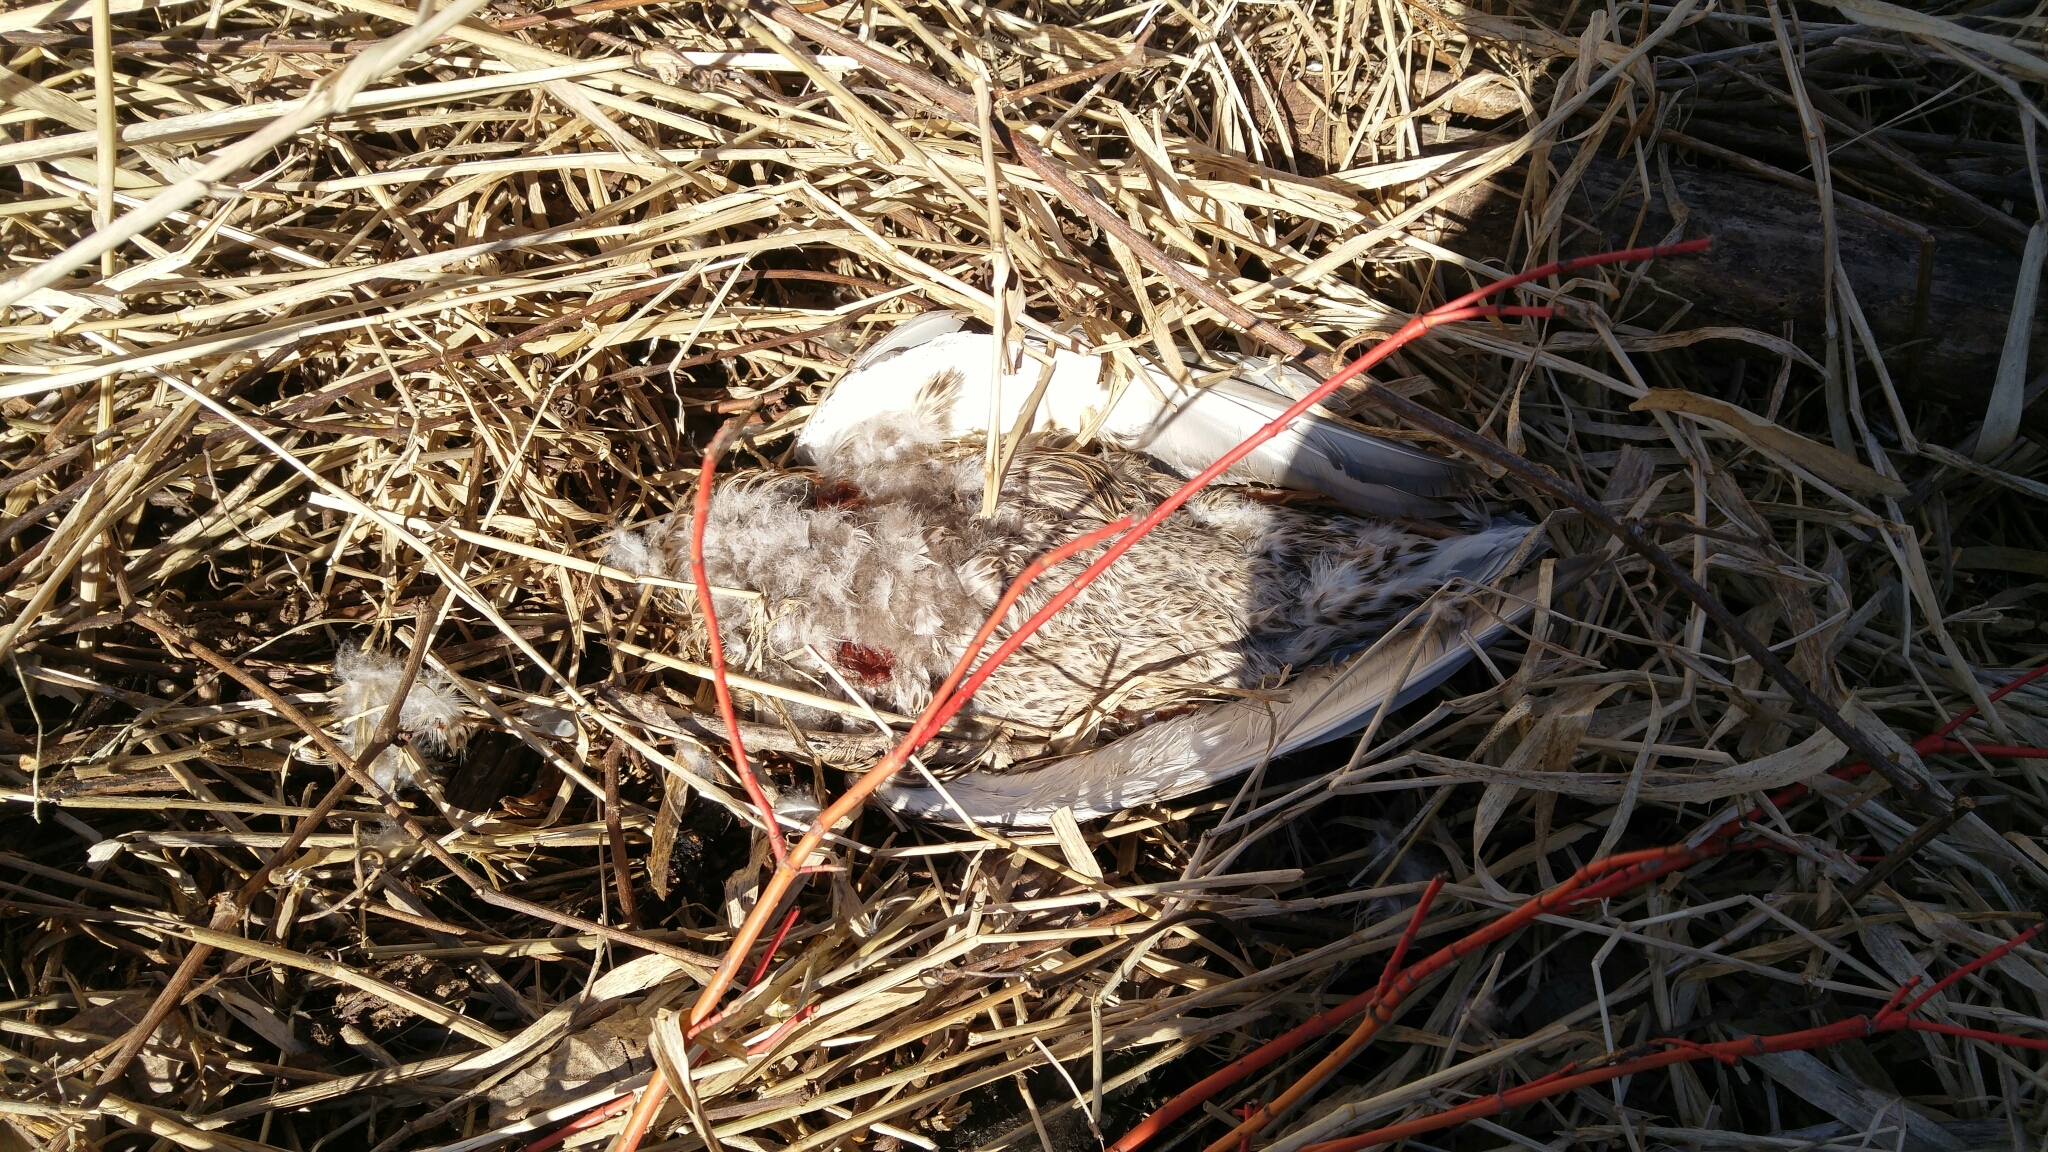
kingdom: Animalia
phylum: Chordata
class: Aves
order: Anseriformes
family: Anatidae
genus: Anas
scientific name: Anas platyrhynchos
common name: Mallard
